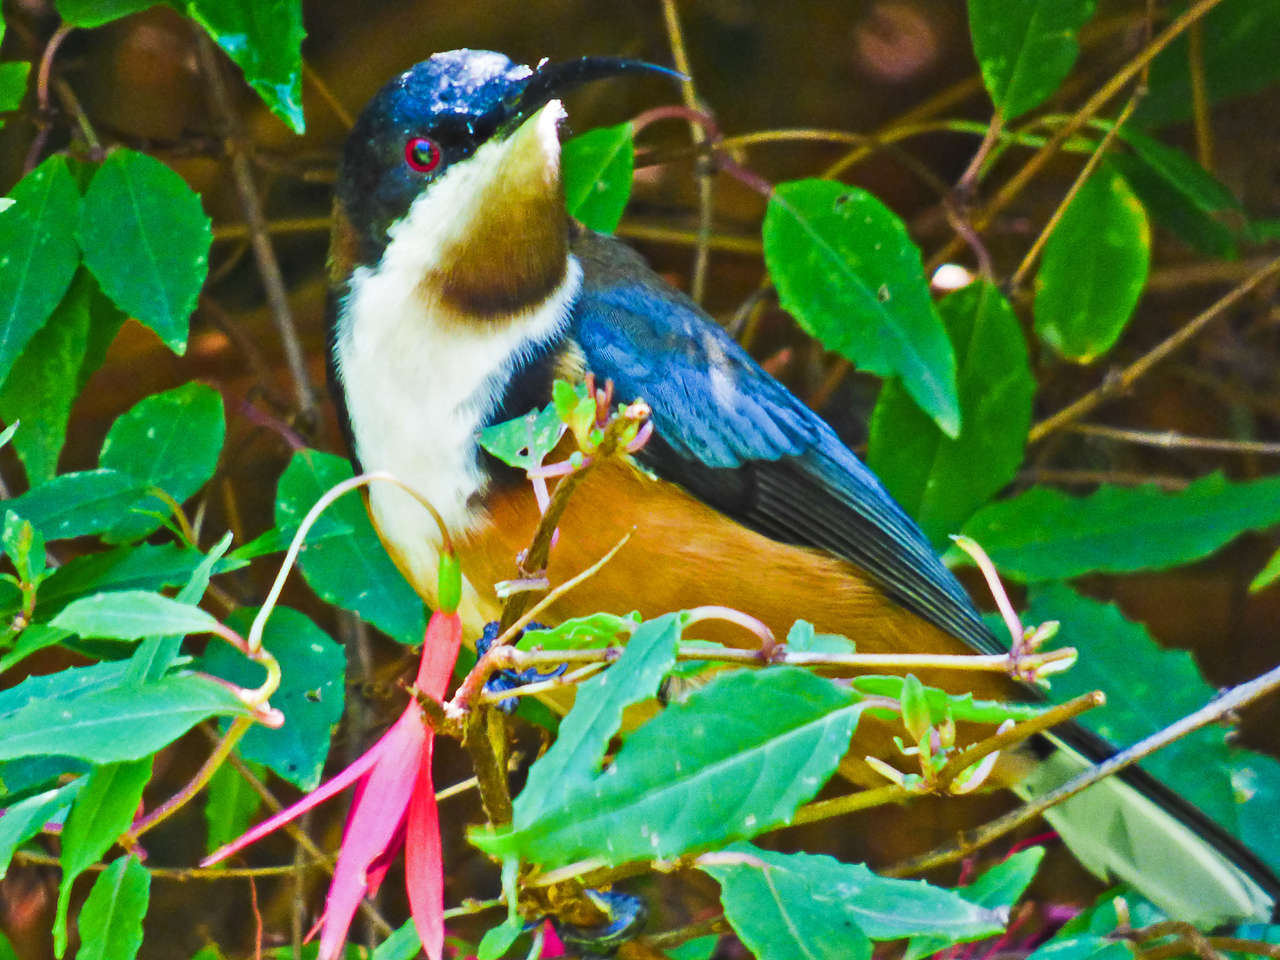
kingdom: Animalia
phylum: Chordata
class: Aves
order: Passeriformes
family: Meliphagidae
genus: Acanthorhynchus
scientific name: Acanthorhynchus tenuirostris
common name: Eastern spinebill
